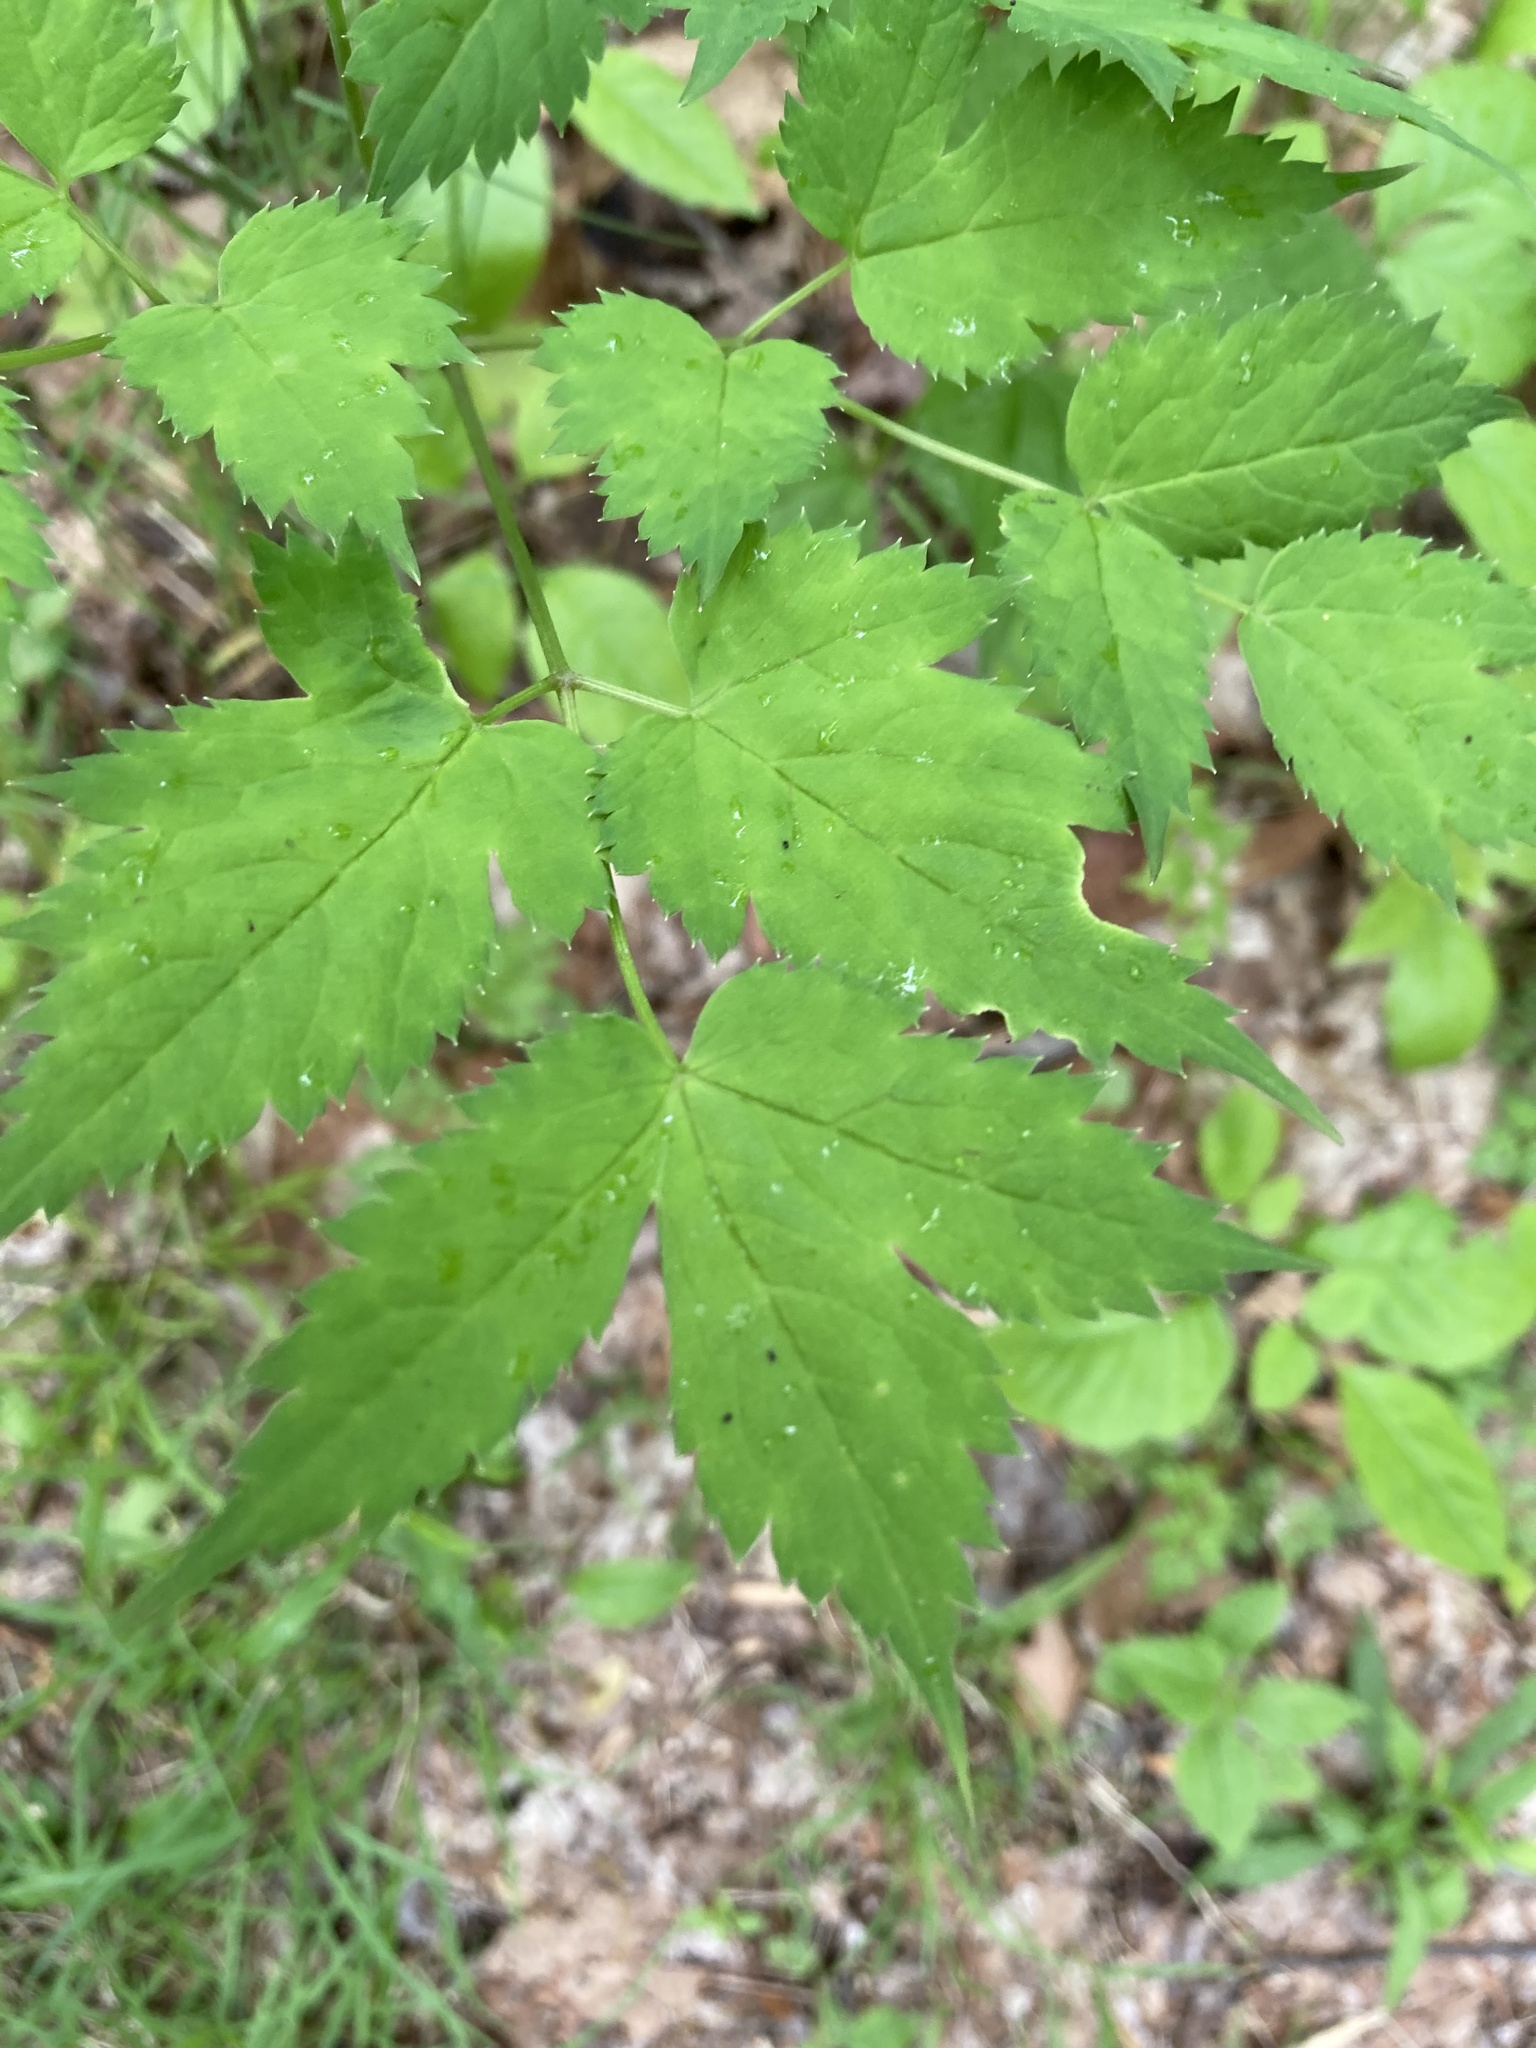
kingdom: Plantae
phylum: Tracheophyta
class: Magnoliopsida
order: Ranunculales
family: Ranunculaceae
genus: Actaea
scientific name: Actaea pachypoda
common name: Doll's-eyes
